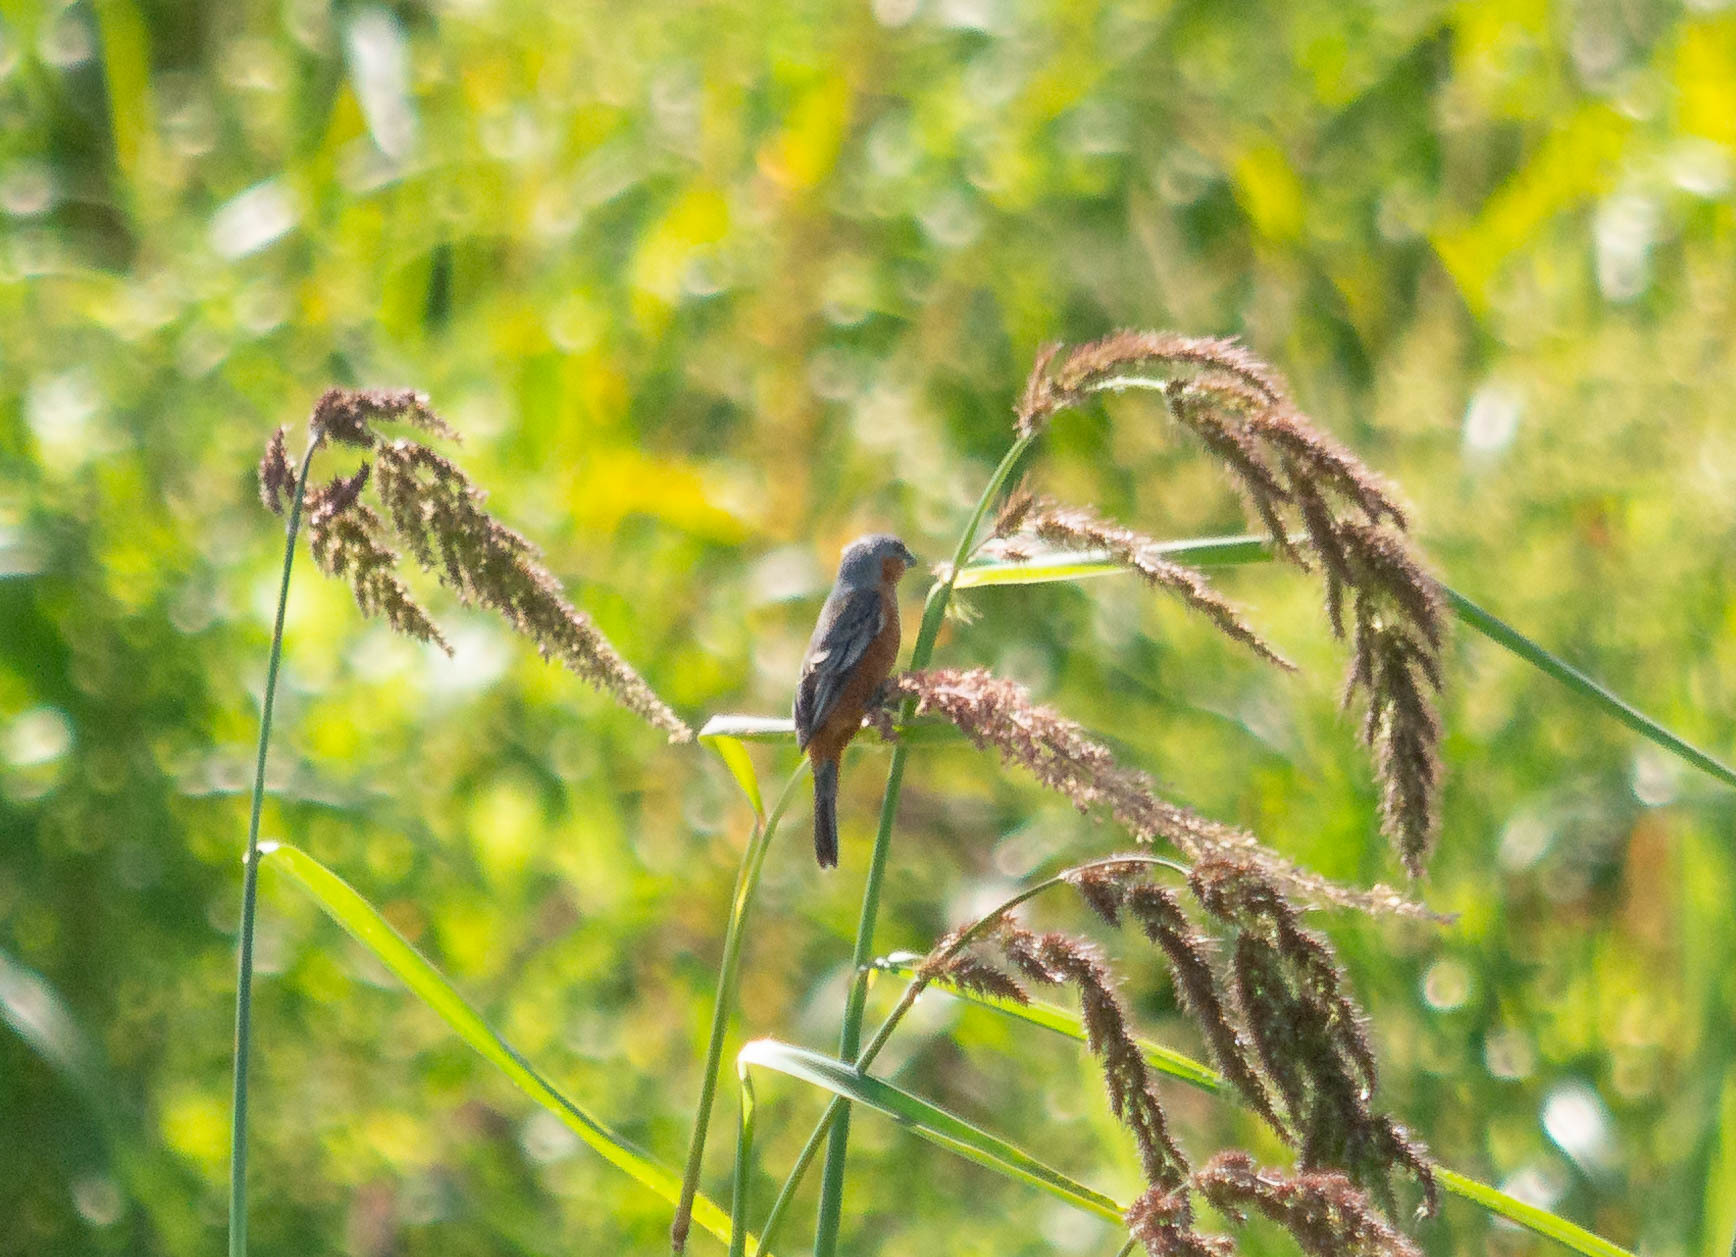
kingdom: Animalia
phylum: Chordata
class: Aves
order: Passeriformes
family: Thraupidae
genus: Sporophila
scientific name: Sporophila hypoxantha
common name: Tawny-bellied seedeater
